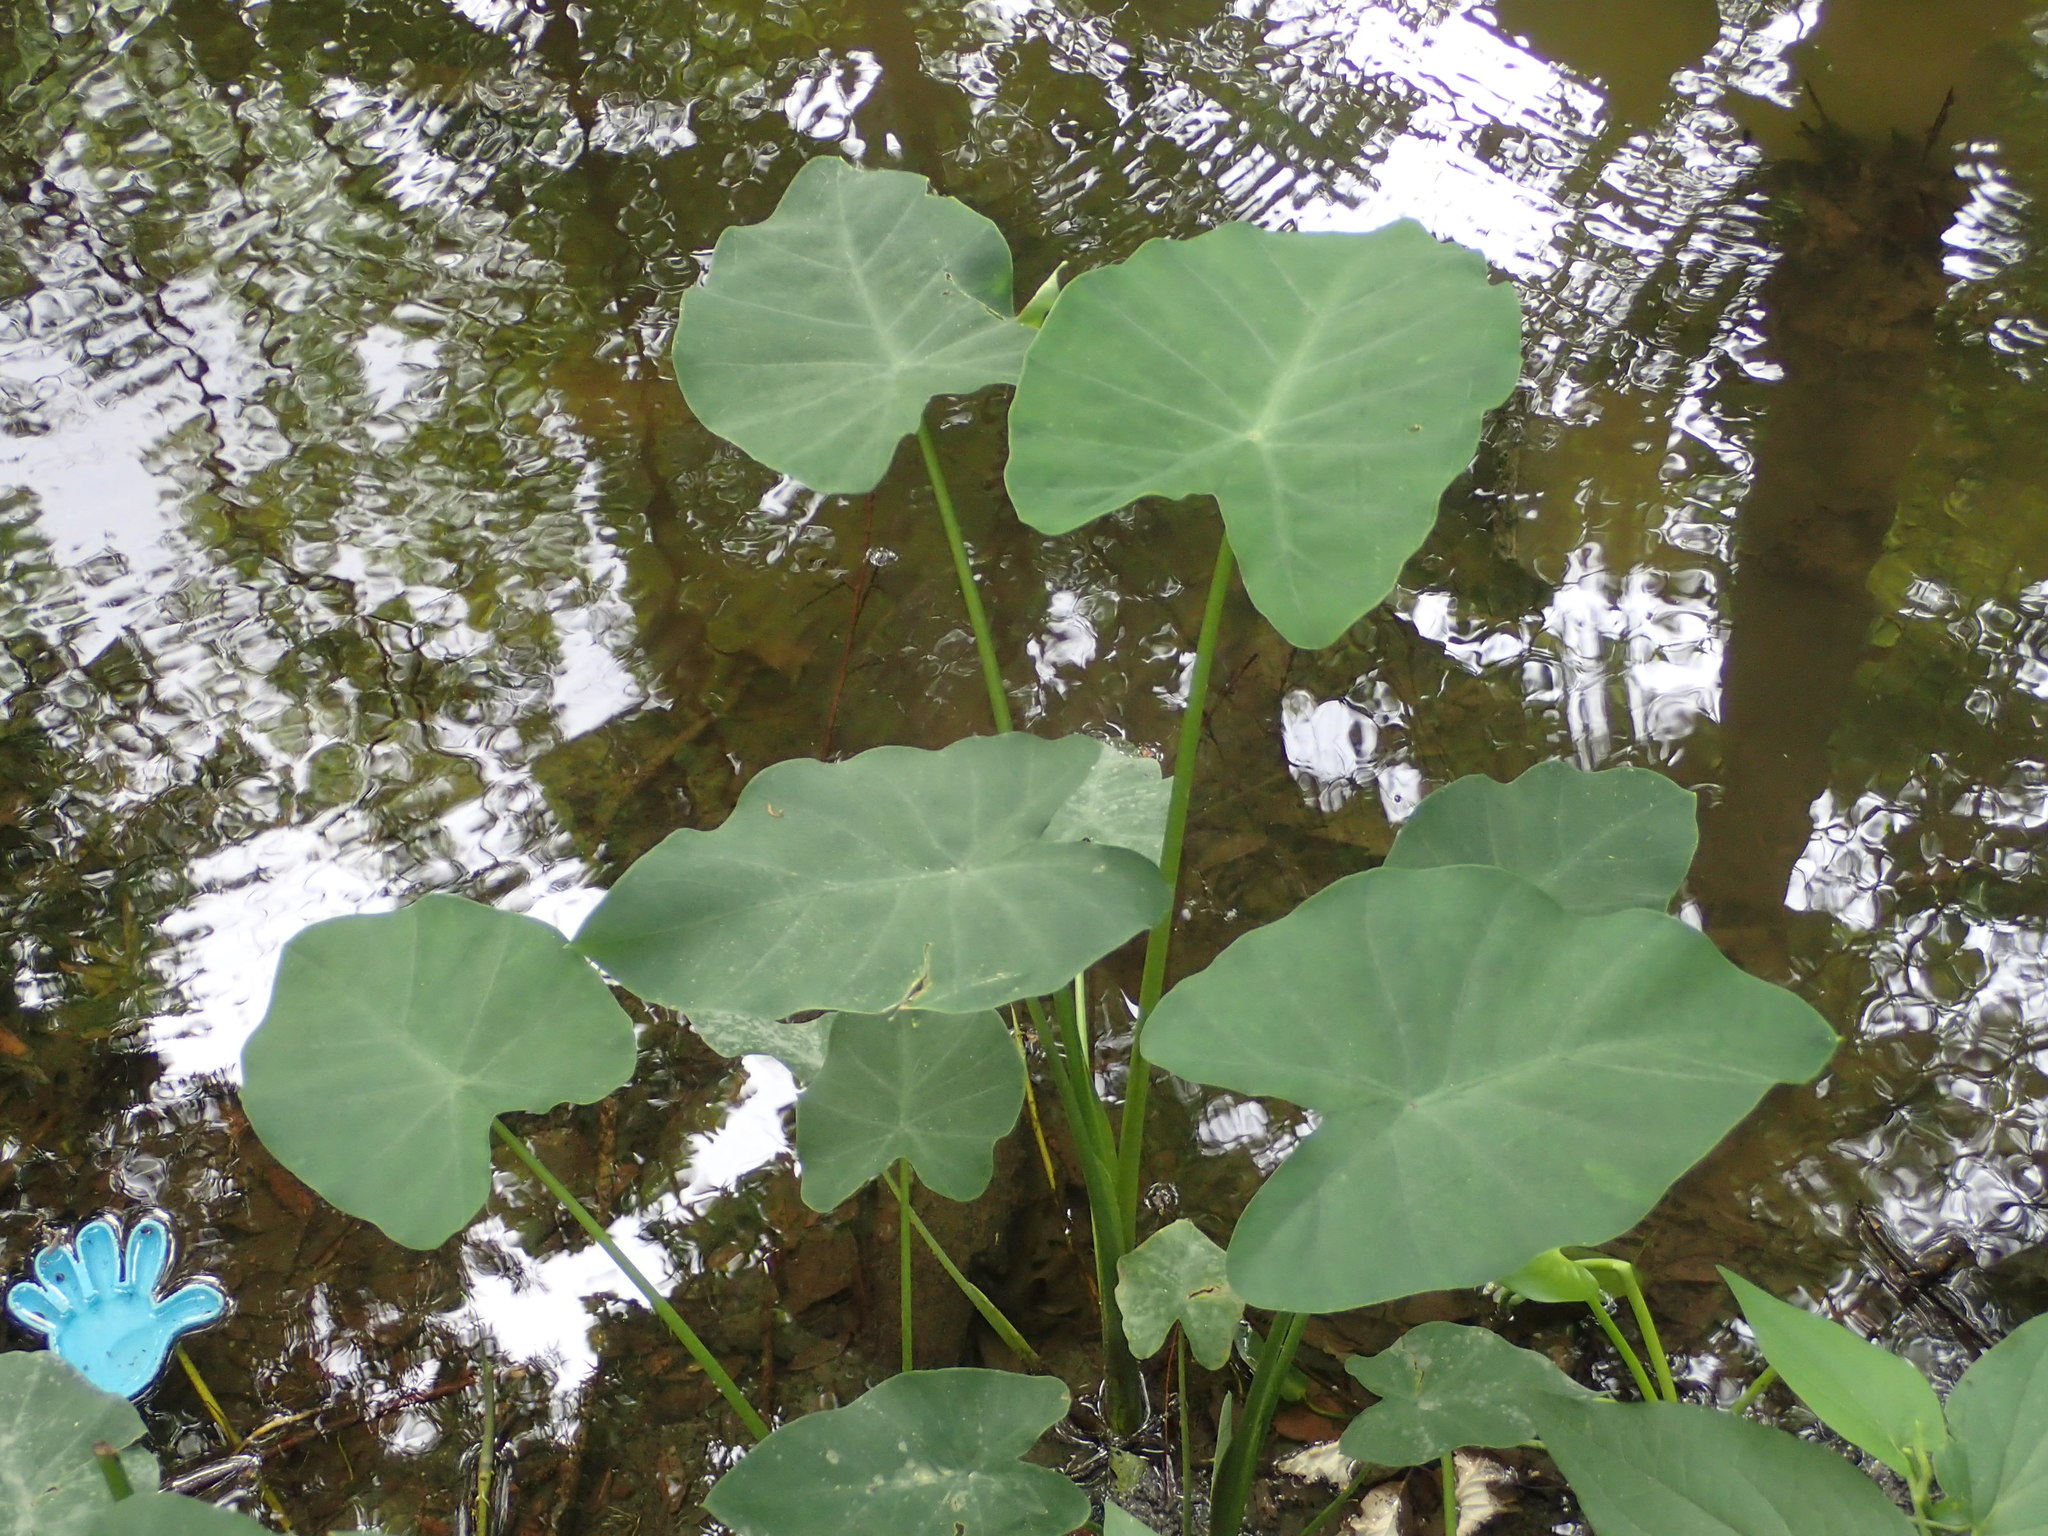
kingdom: Plantae
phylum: Tracheophyta
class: Liliopsida
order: Alismatales
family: Araceae
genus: Colocasia
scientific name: Colocasia esculenta
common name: Taro
